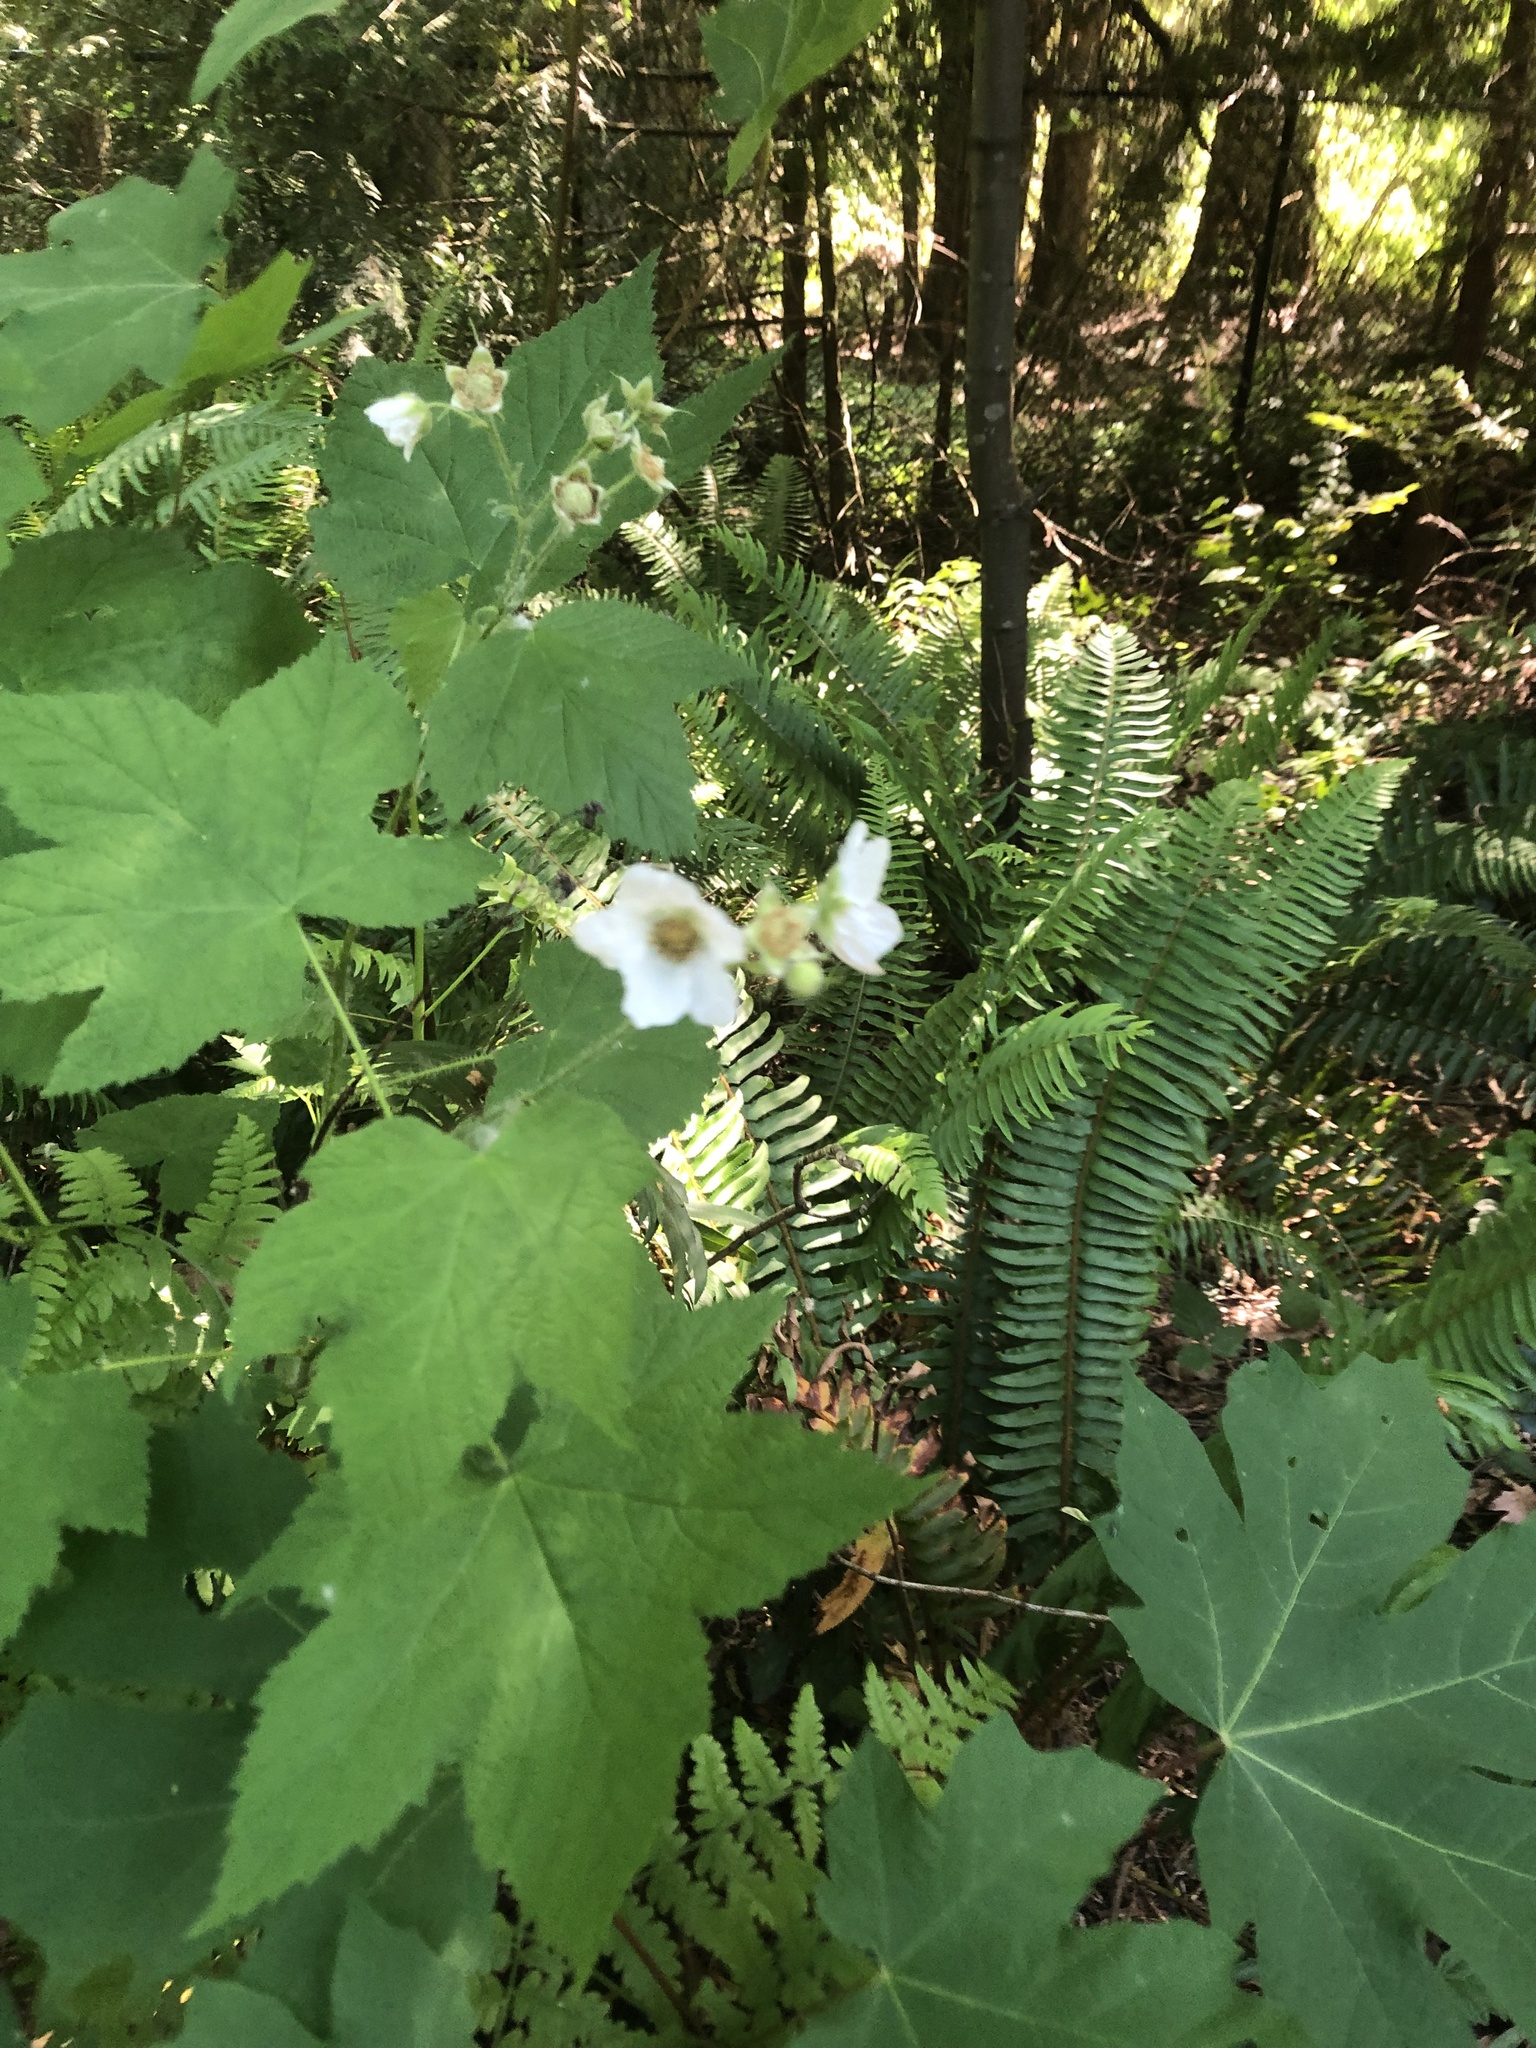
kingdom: Plantae
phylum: Tracheophyta
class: Magnoliopsida
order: Rosales
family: Rosaceae
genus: Rubus
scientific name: Rubus parviflorus
